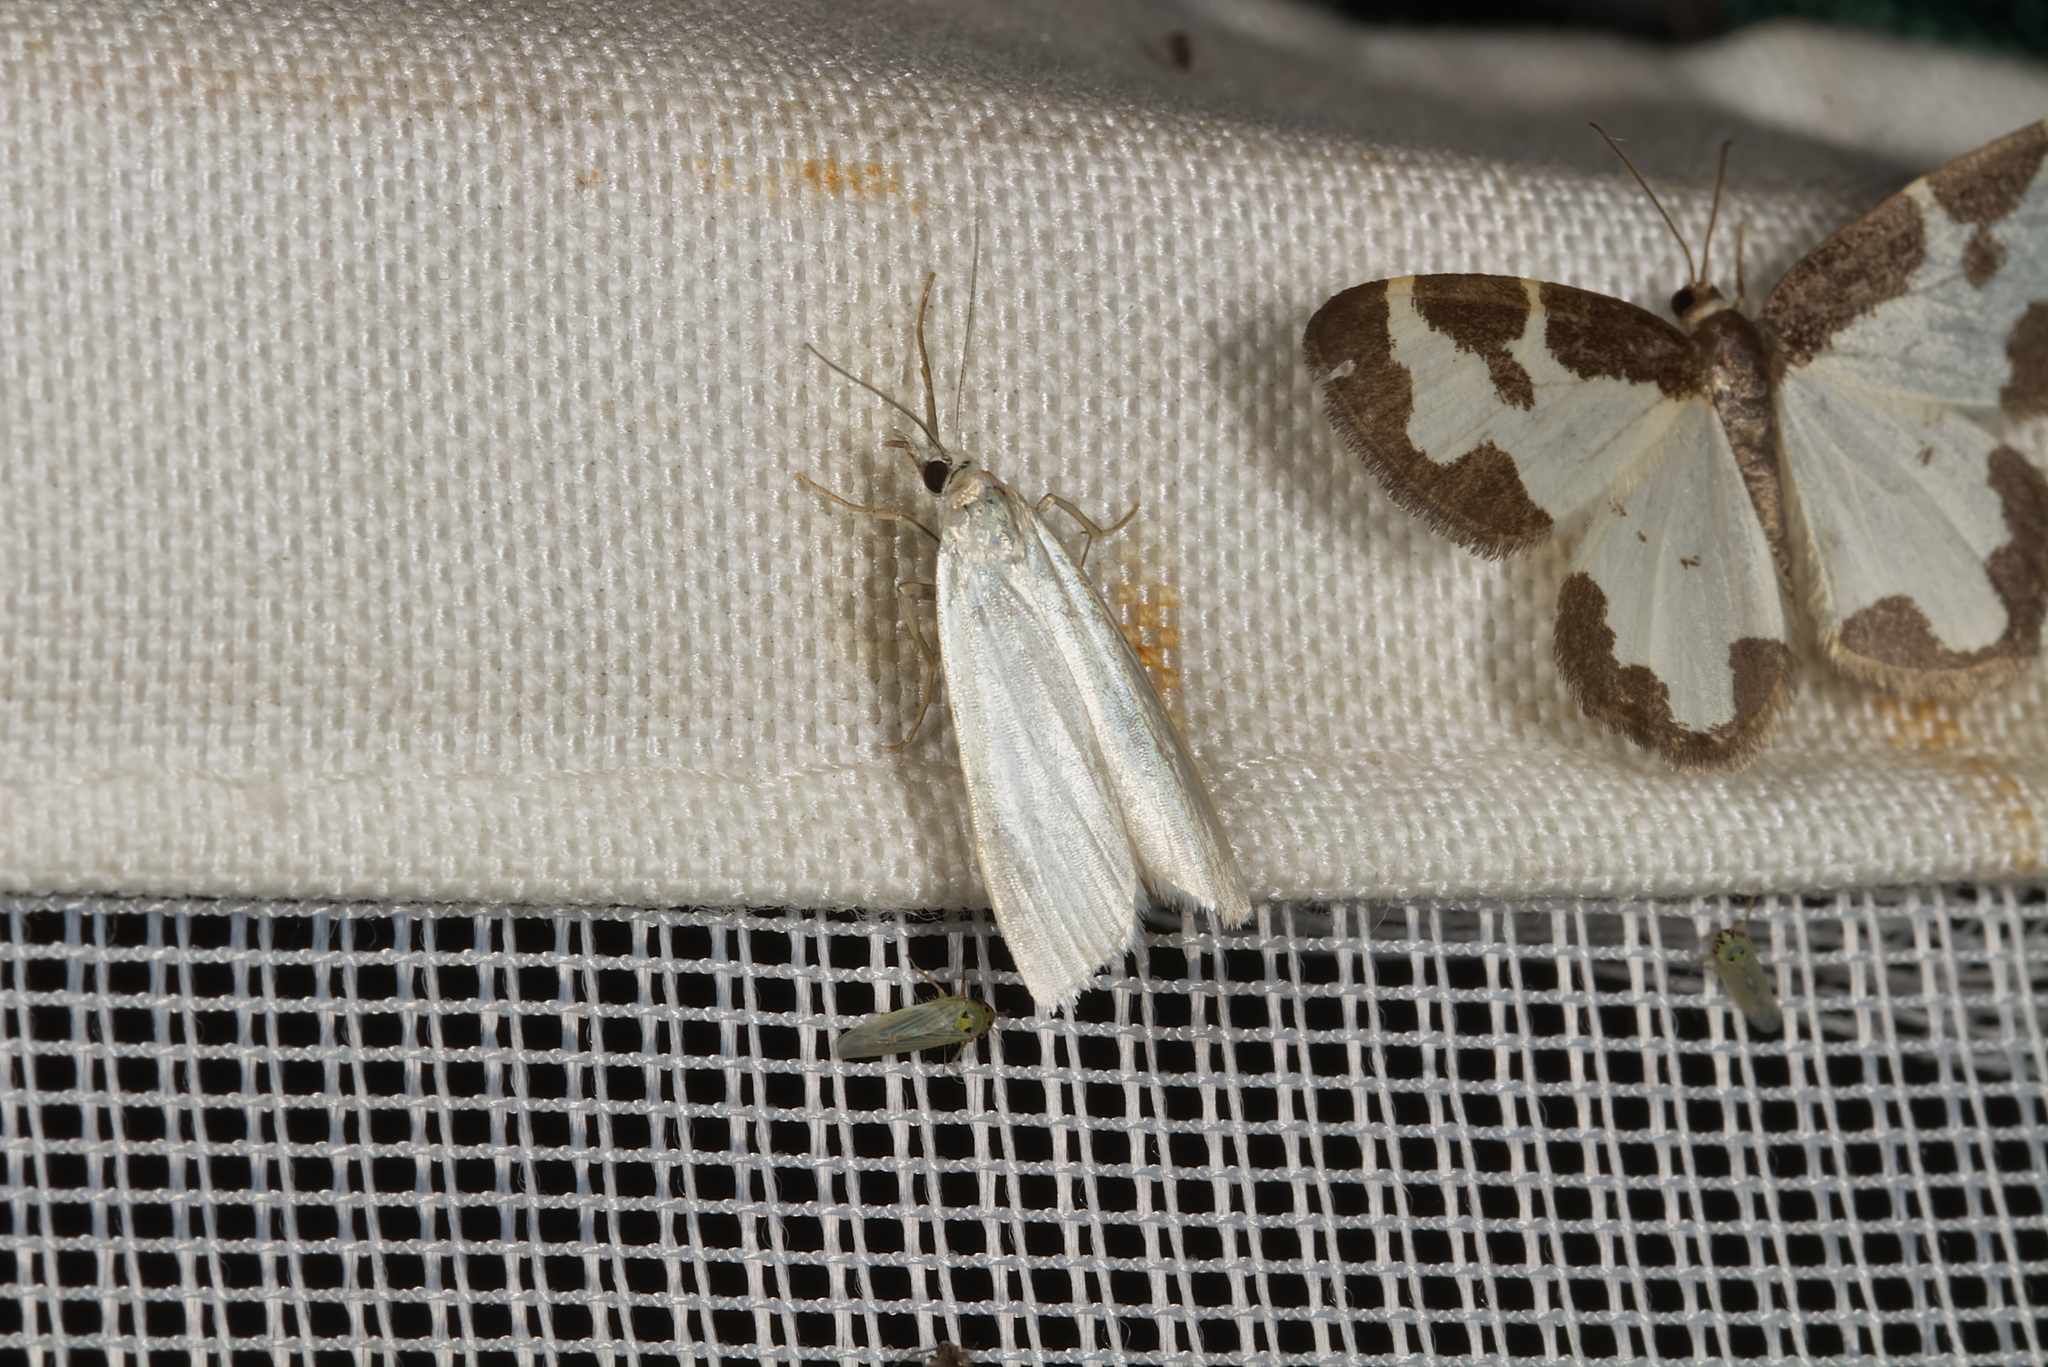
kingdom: Animalia
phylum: Arthropoda
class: Insecta
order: Lepidoptera
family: Crambidae
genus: Crambus
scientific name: Crambus perlellus
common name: Yellow satin veneer
